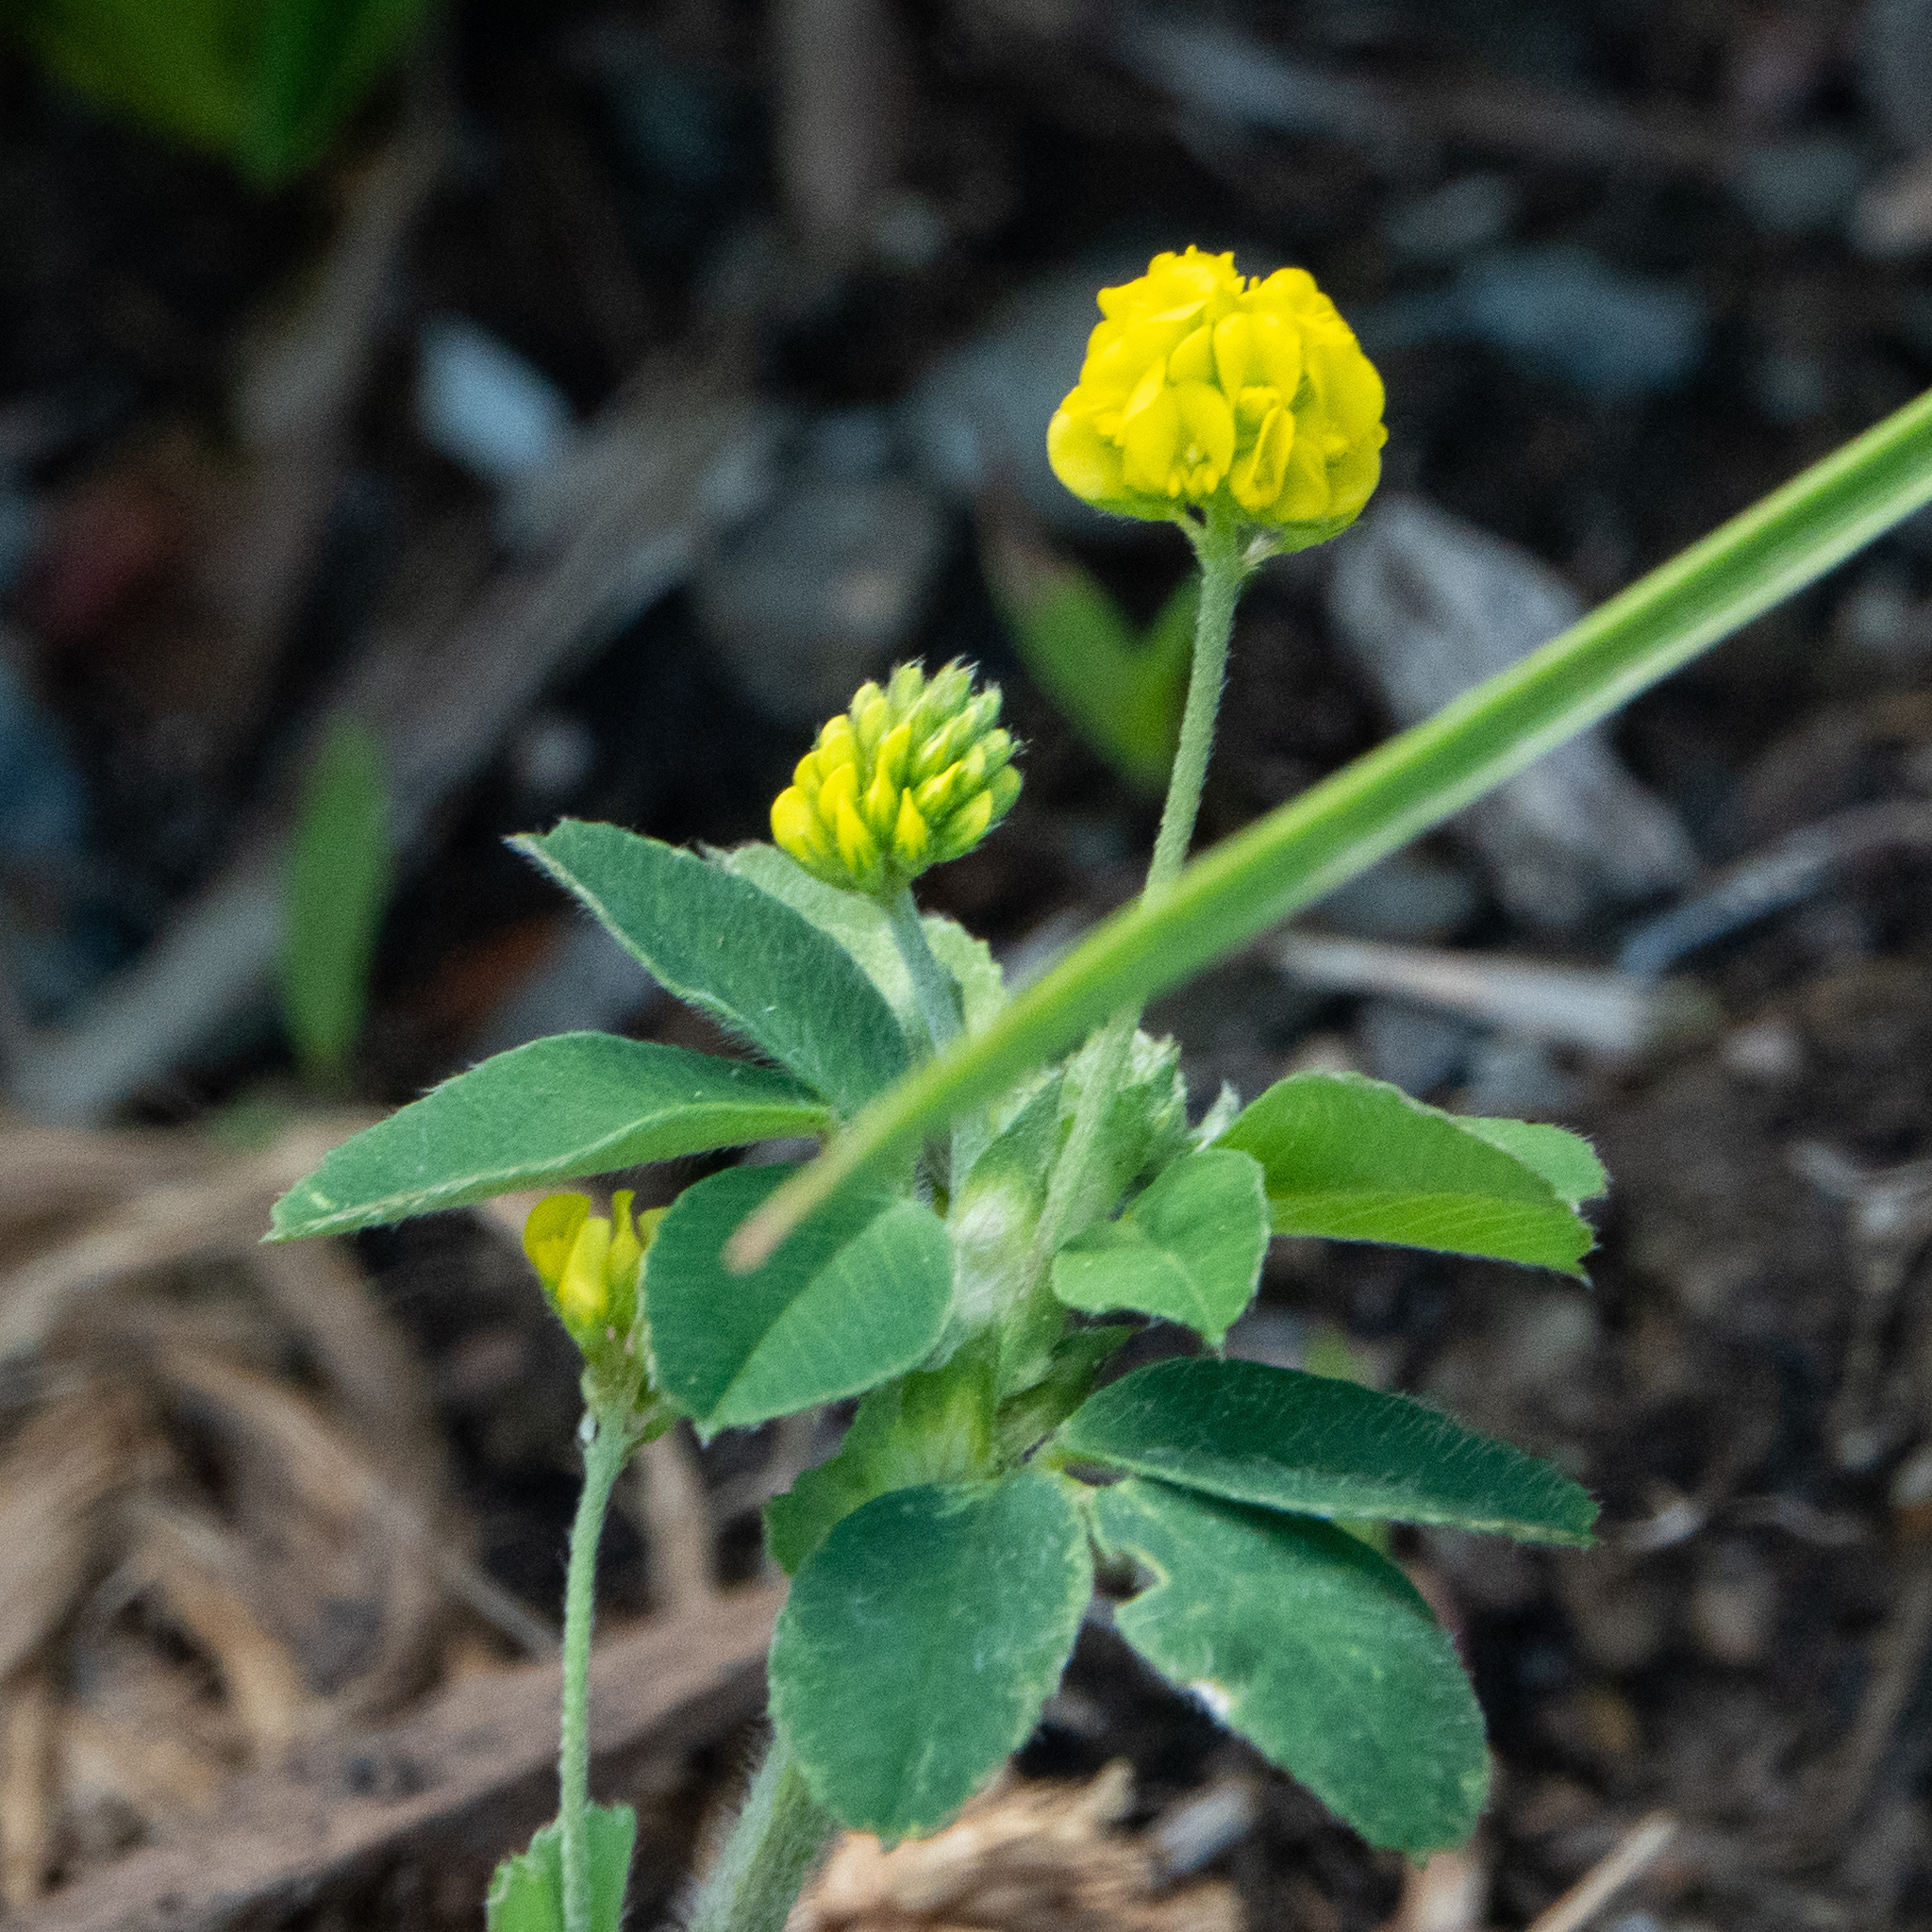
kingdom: Plantae
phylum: Tracheophyta
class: Magnoliopsida
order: Fabales
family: Fabaceae
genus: Medicago
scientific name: Medicago lupulina
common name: Black medick
